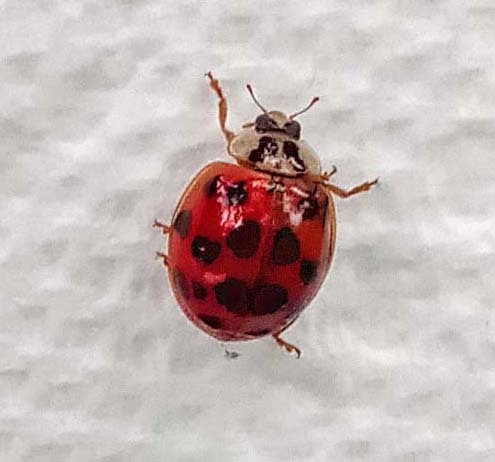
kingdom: Animalia
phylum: Arthropoda
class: Insecta
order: Coleoptera
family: Coccinellidae
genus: Harmonia
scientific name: Harmonia axyridis
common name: Harlequin ladybird
